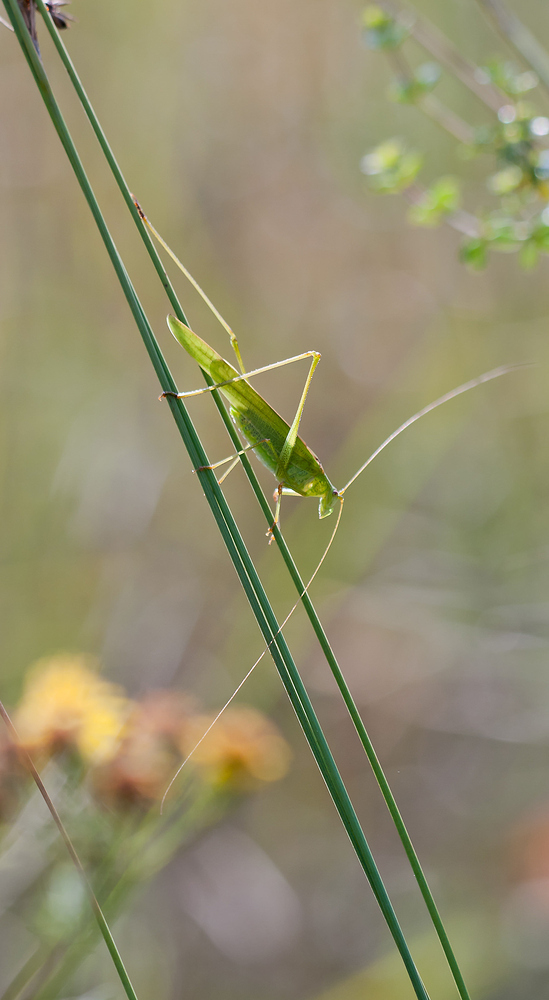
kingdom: Animalia
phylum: Arthropoda
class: Insecta
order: Orthoptera
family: Tettigoniidae
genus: Phaneroptera
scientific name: Phaneroptera falcata
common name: Sickle-bearing bush-cricket
